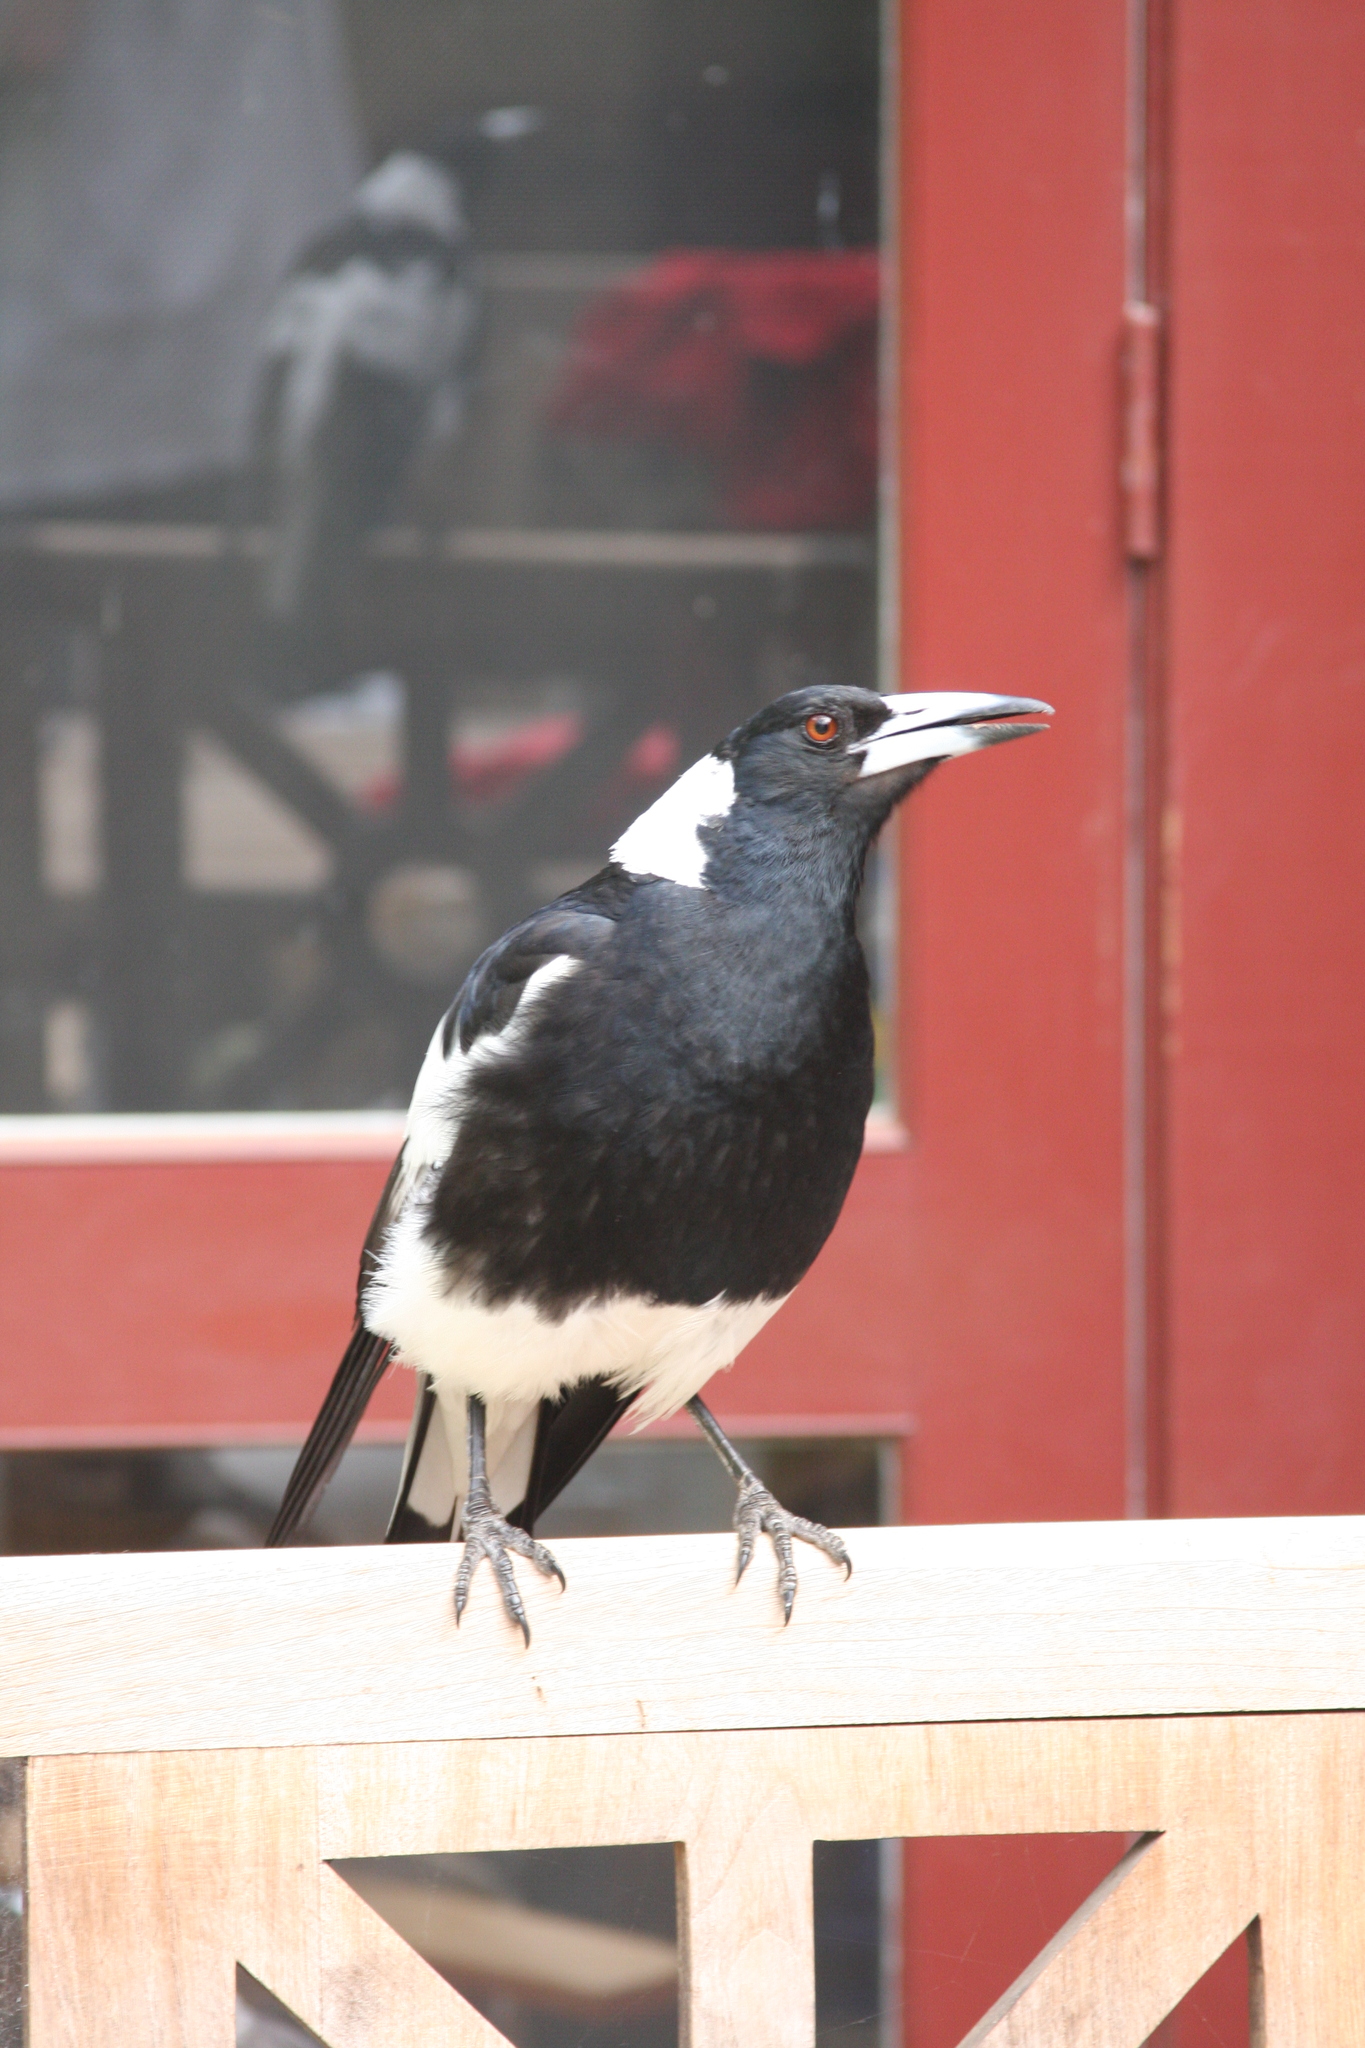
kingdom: Animalia
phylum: Chordata
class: Aves
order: Passeriformes
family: Cracticidae
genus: Gymnorhina
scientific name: Gymnorhina tibicen
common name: Australian magpie
